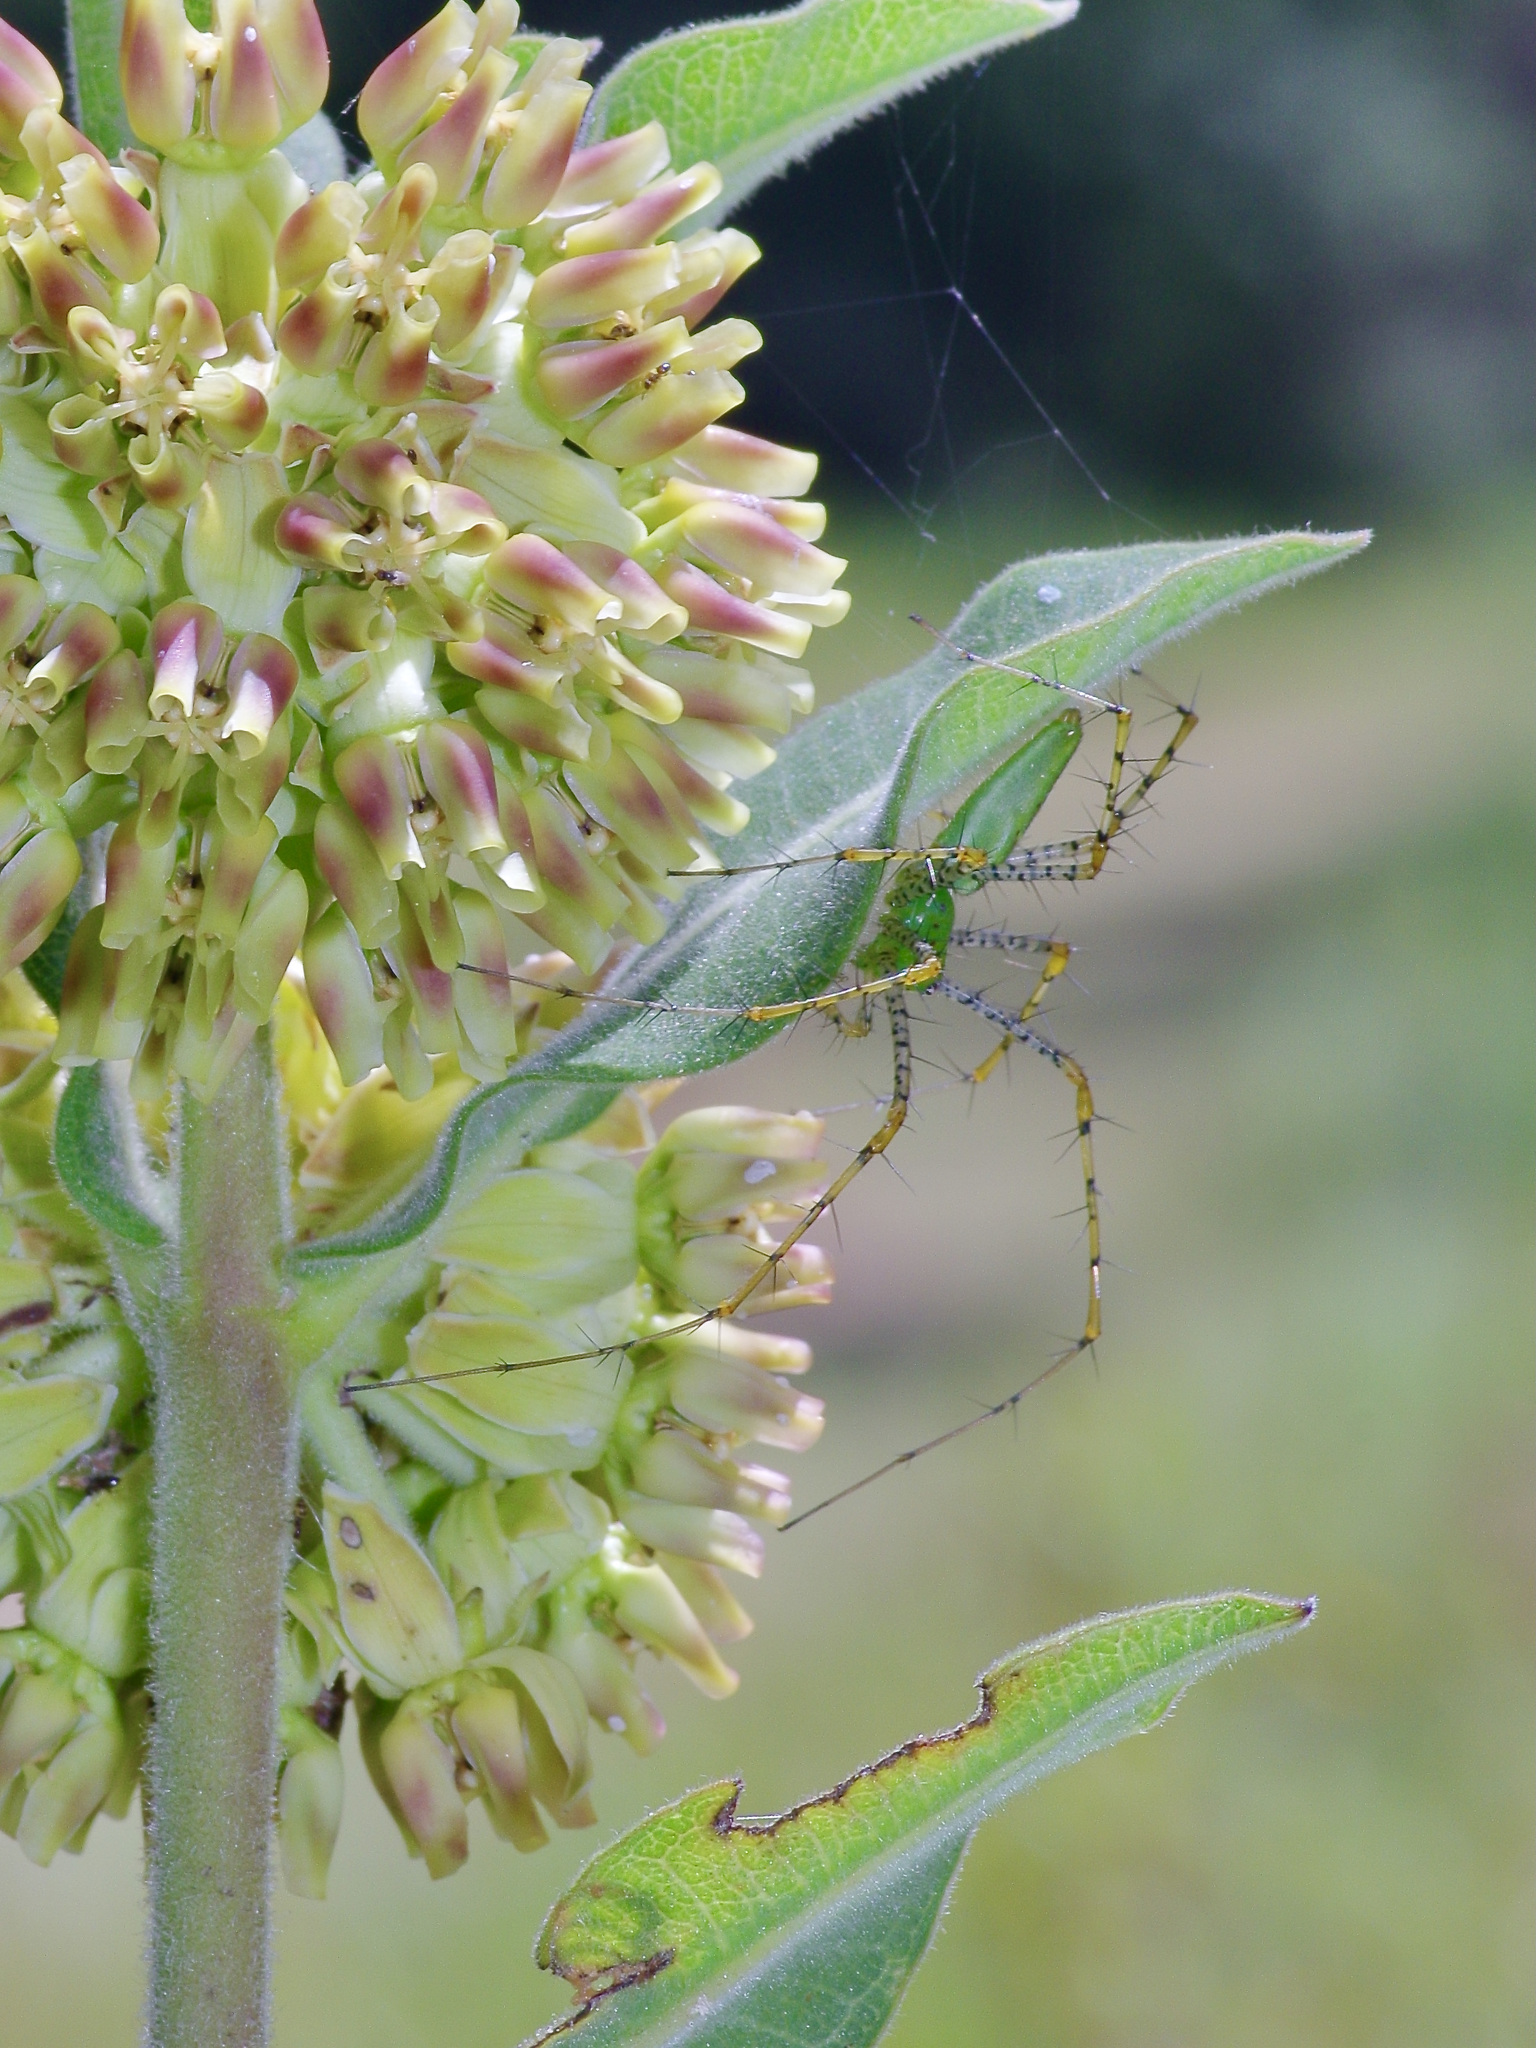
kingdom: Animalia
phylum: Arthropoda
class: Arachnida
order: Araneae
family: Oxyopidae
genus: Peucetia
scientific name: Peucetia viridans
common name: Lynx spiders
